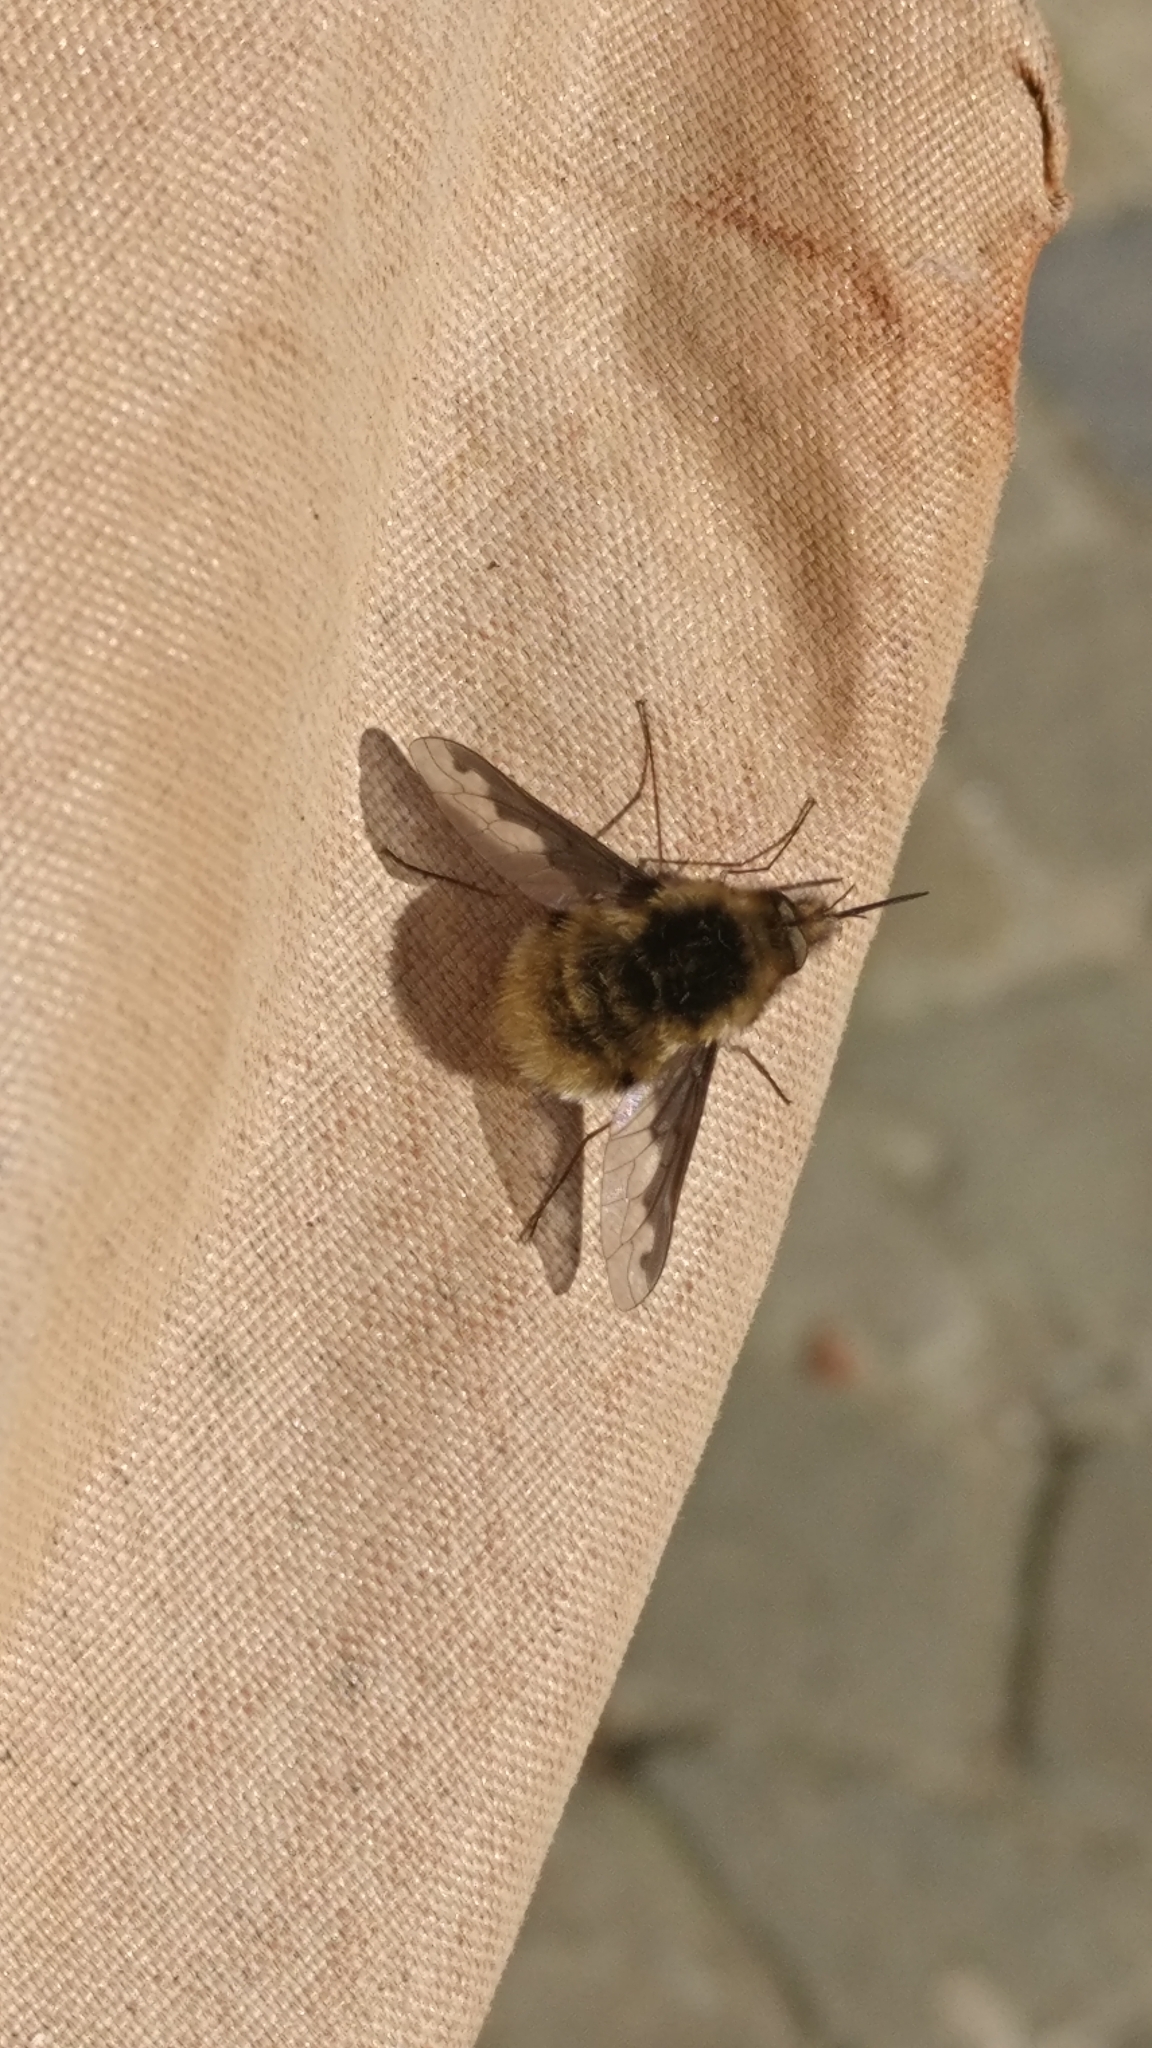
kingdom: Animalia
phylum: Arthropoda
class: Insecta
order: Diptera
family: Bombyliidae
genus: Bombylius
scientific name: Bombylius major
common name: Bee fly
